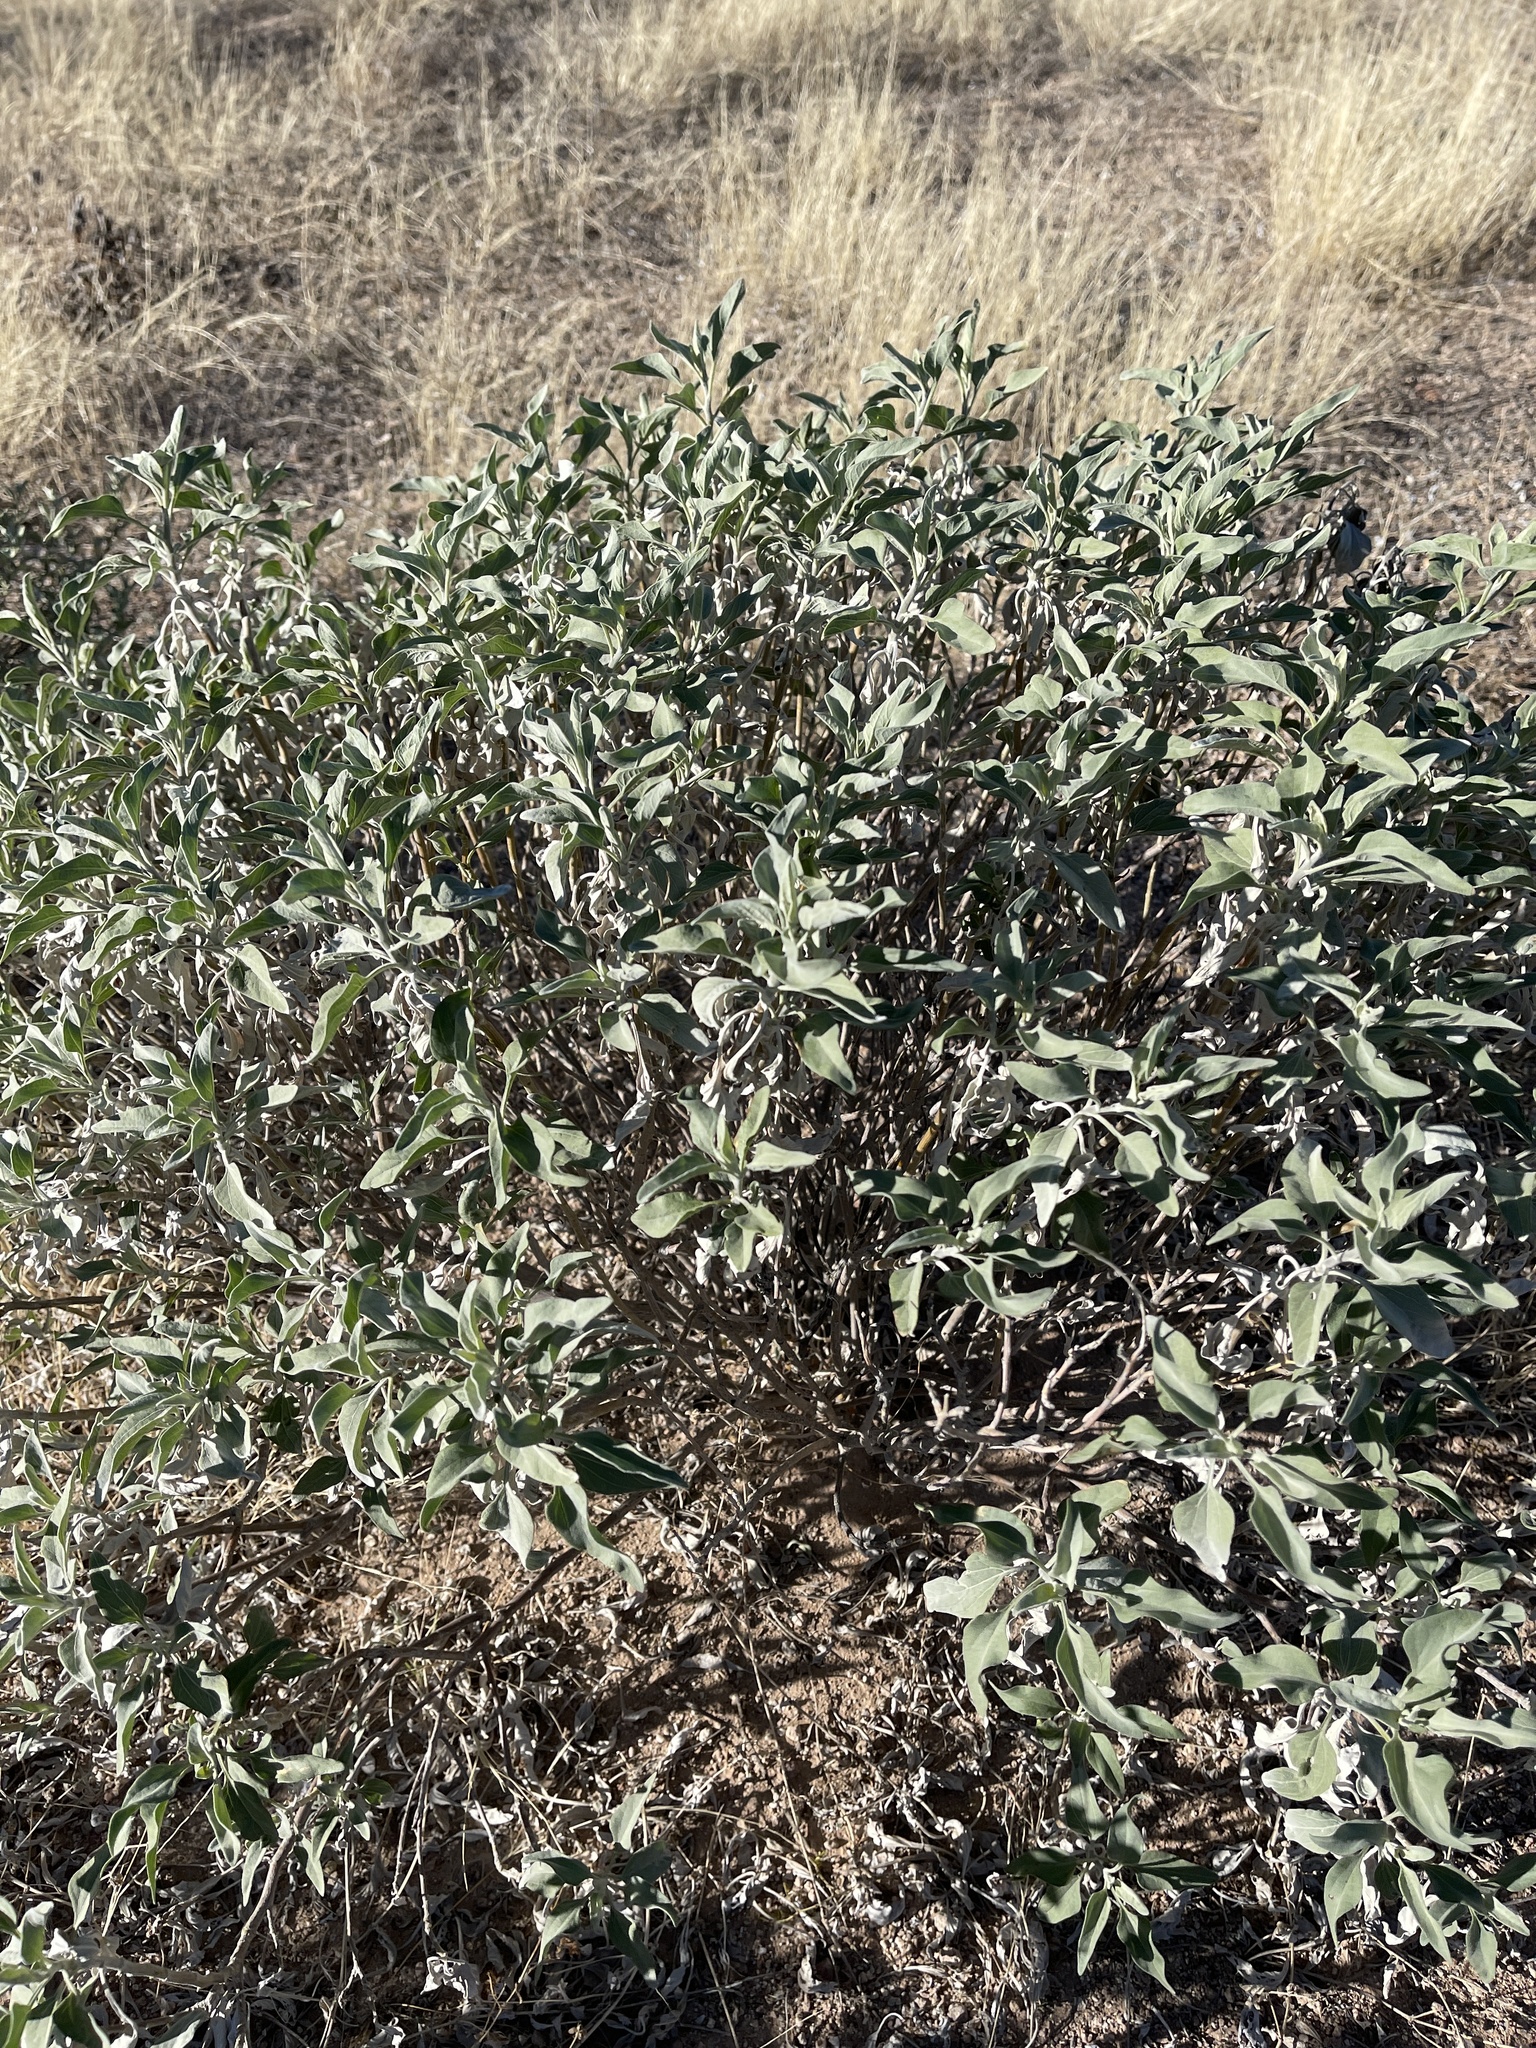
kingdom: Plantae
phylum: Tracheophyta
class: Magnoliopsida
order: Asterales
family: Asteraceae
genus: Encelia
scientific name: Encelia farinosa
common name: Brittlebush
